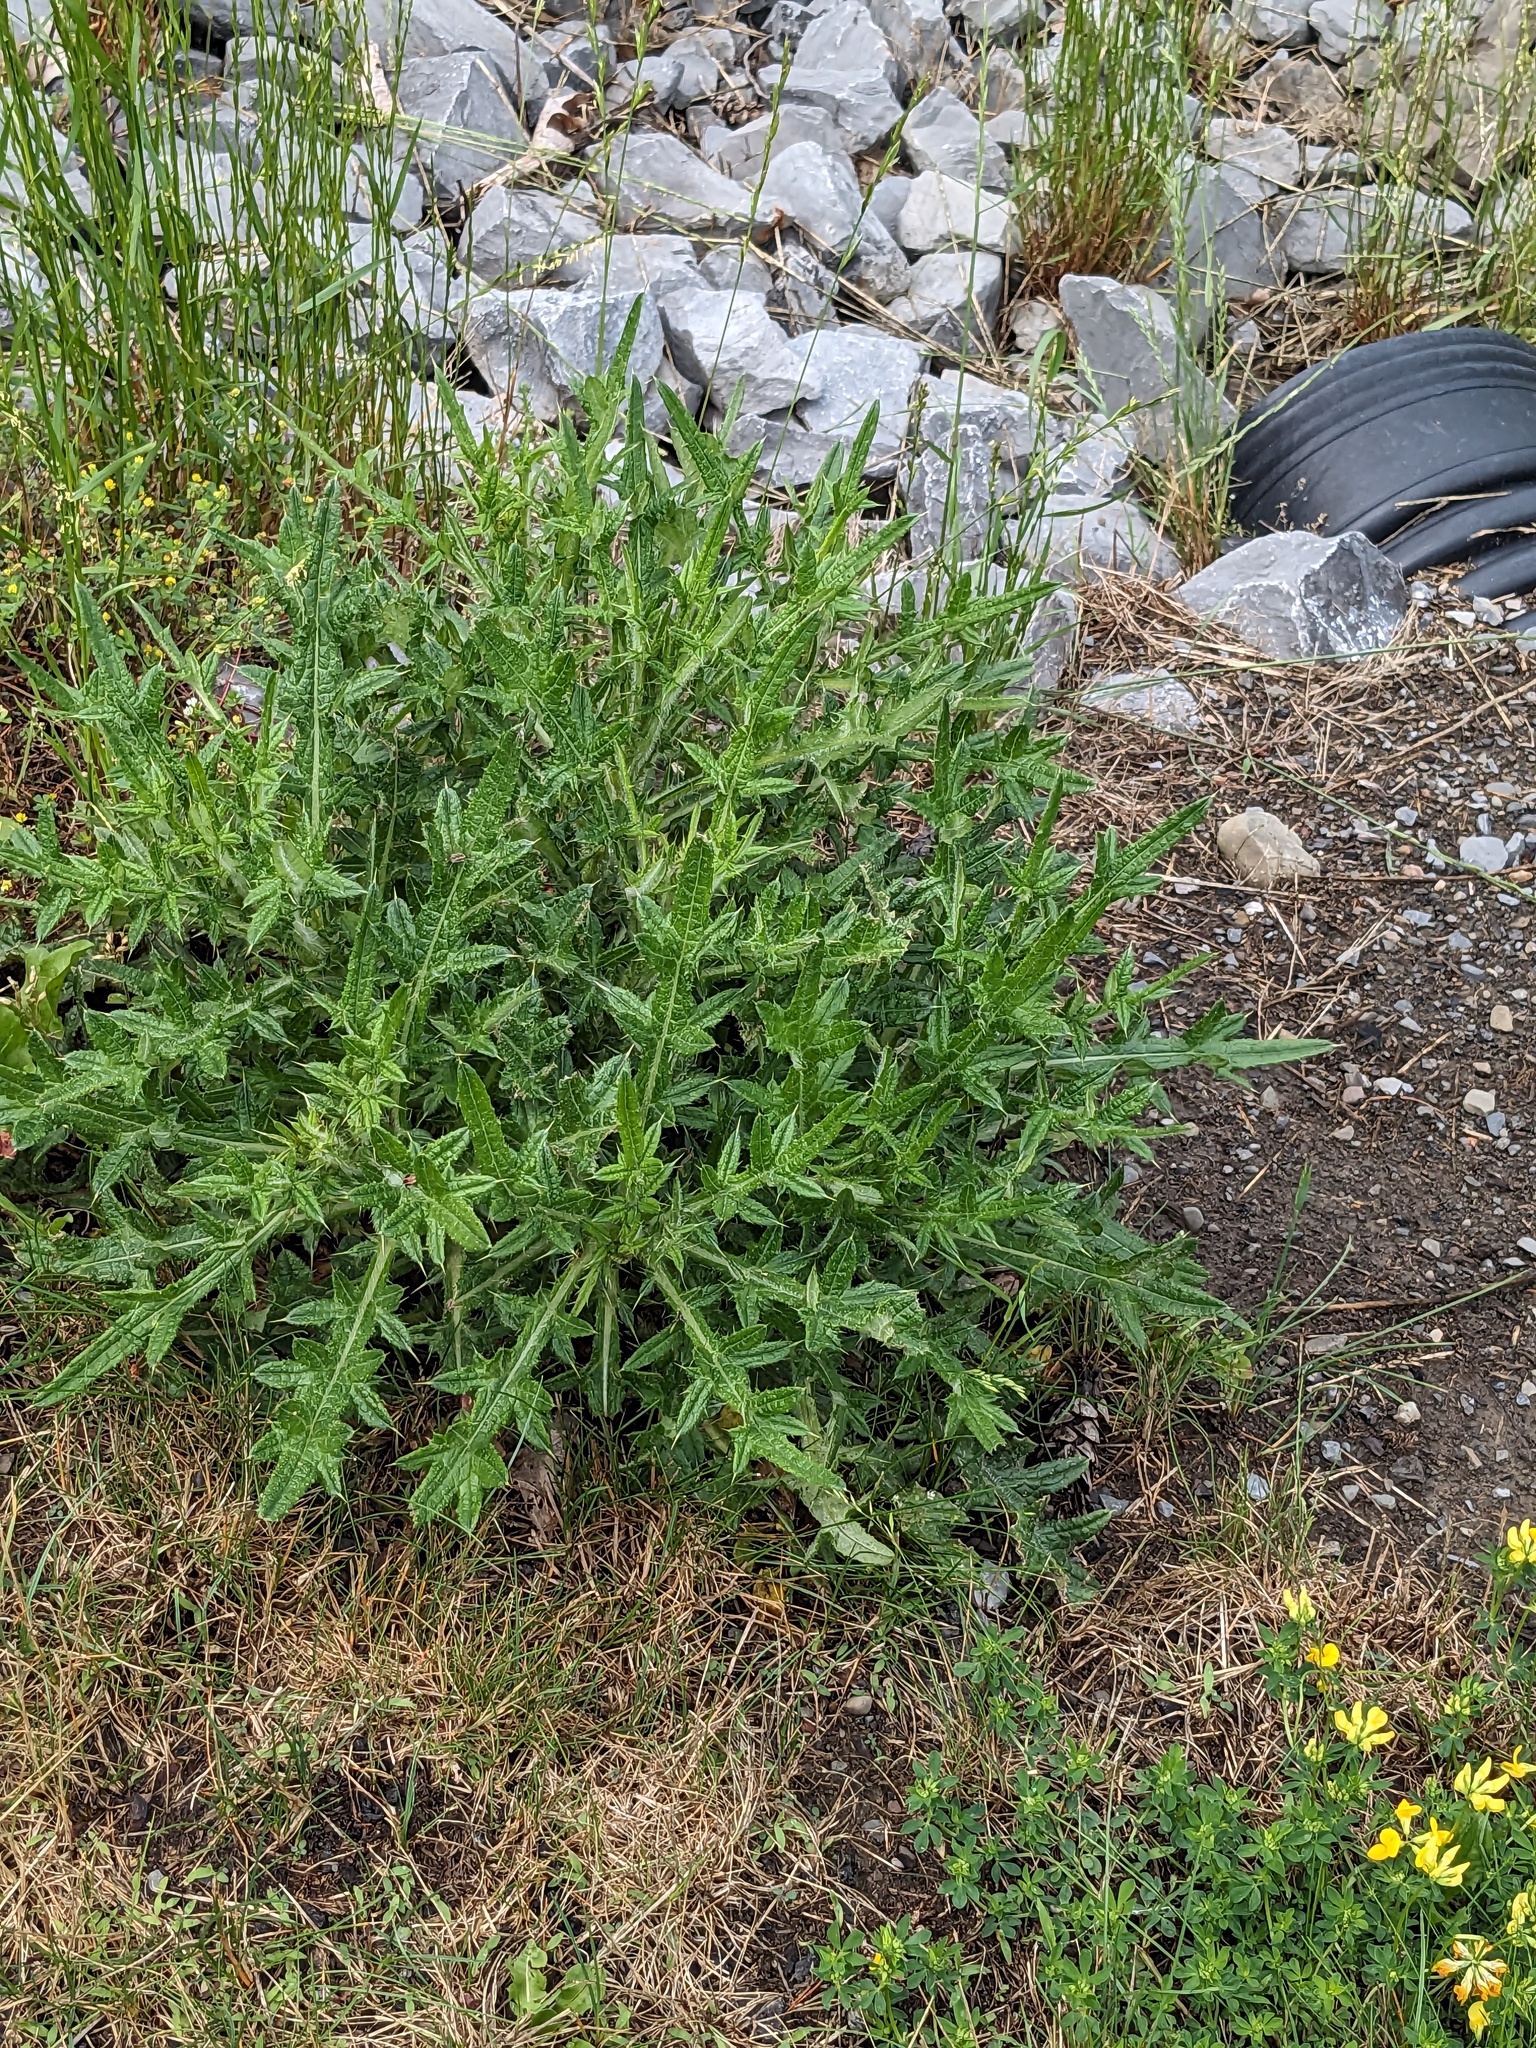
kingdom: Plantae
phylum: Tracheophyta
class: Magnoliopsida
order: Asterales
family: Asteraceae
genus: Cirsium
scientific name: Cirsium vulgare
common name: Bull thistle
